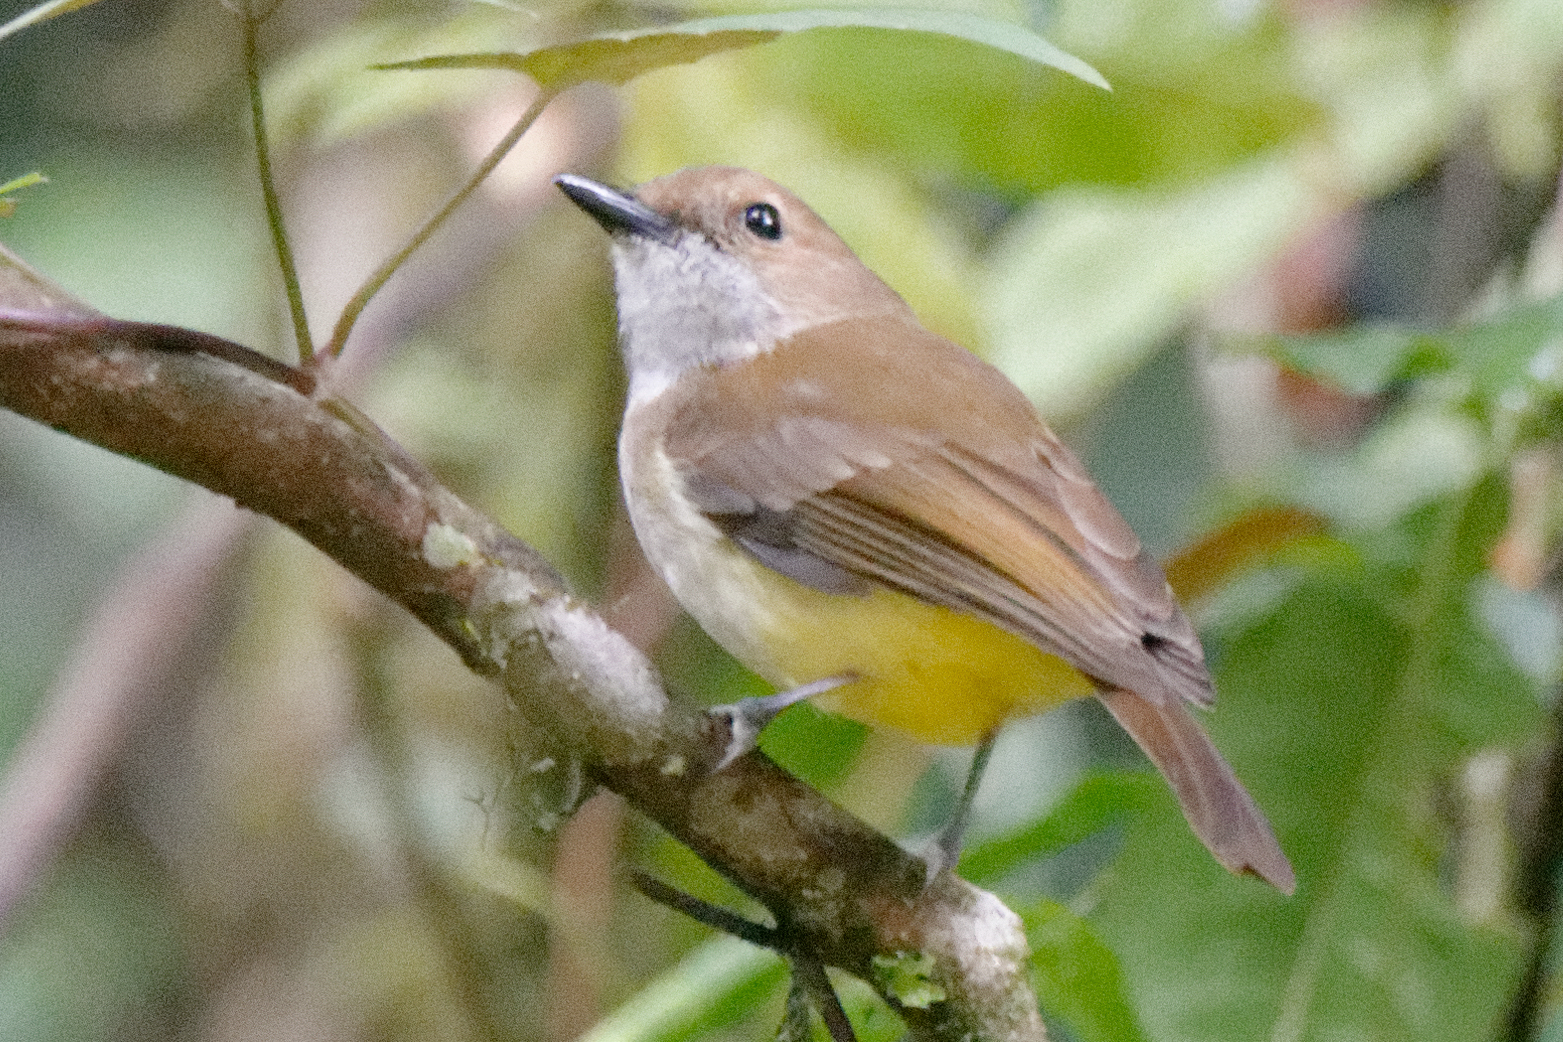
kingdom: Animalia
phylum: Chordata
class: Aves
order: Passeriformes
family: Pachycephalidae
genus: Pachycephala
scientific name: Pachycephala sulfuriventer
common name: Sulphur-vented whistler
